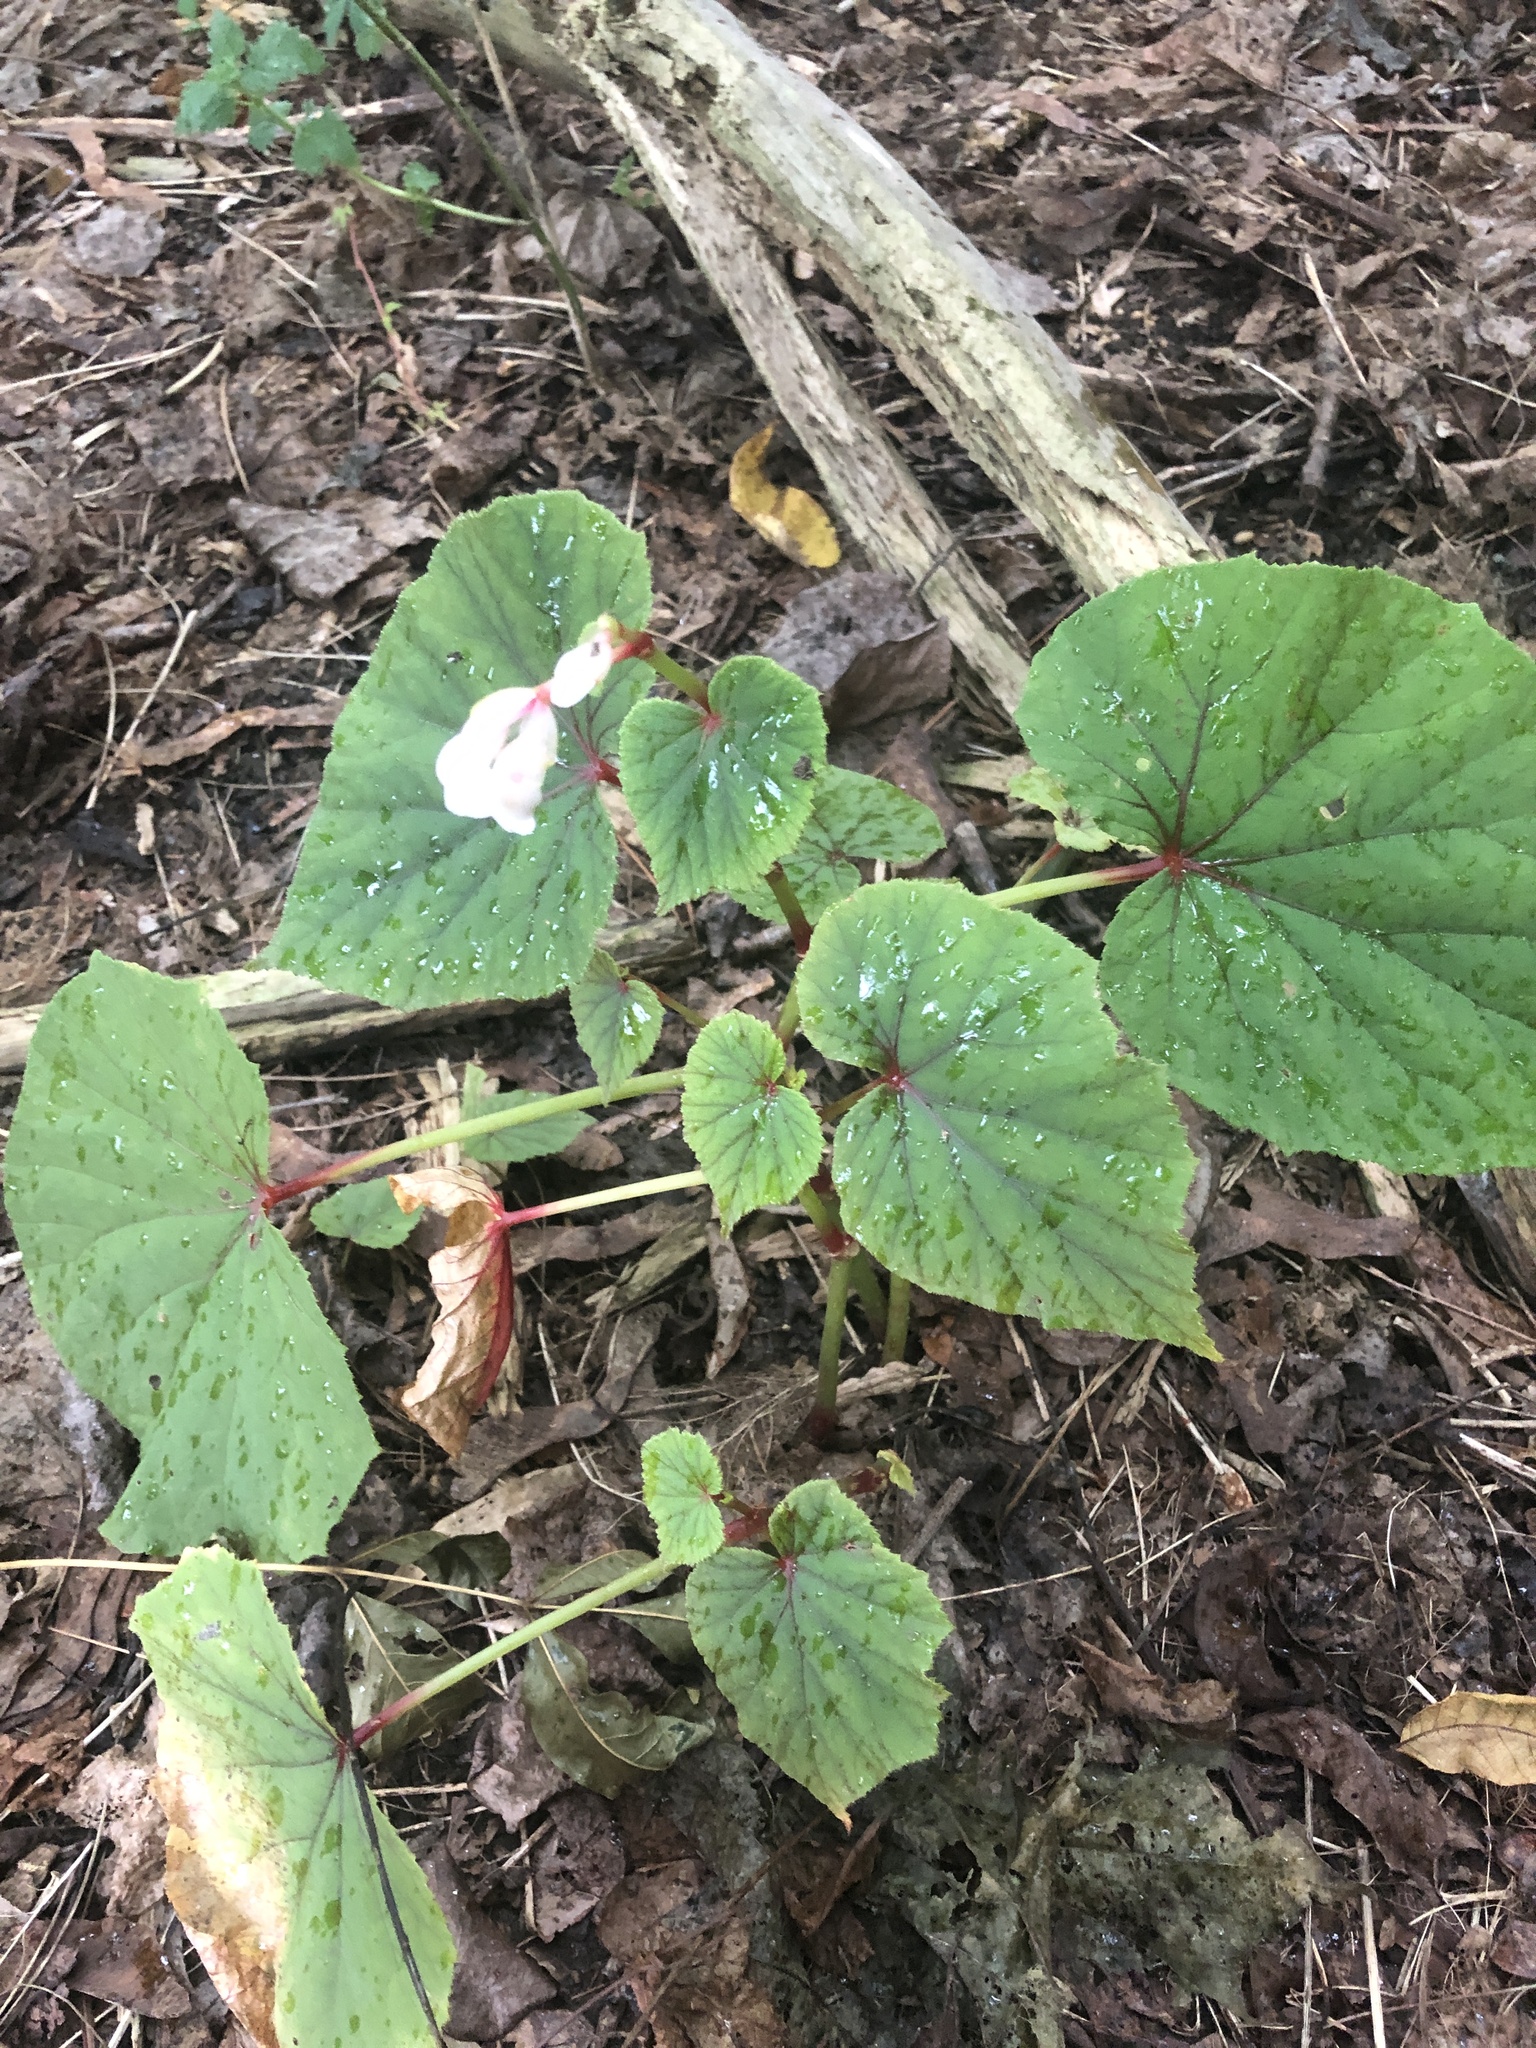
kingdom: Plantae
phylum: Tracheophyta
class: Magnoliopsida
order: Cucurbitales
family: Begoniaceae
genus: Begonia
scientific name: Begonia grandis
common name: Hardy begonia
